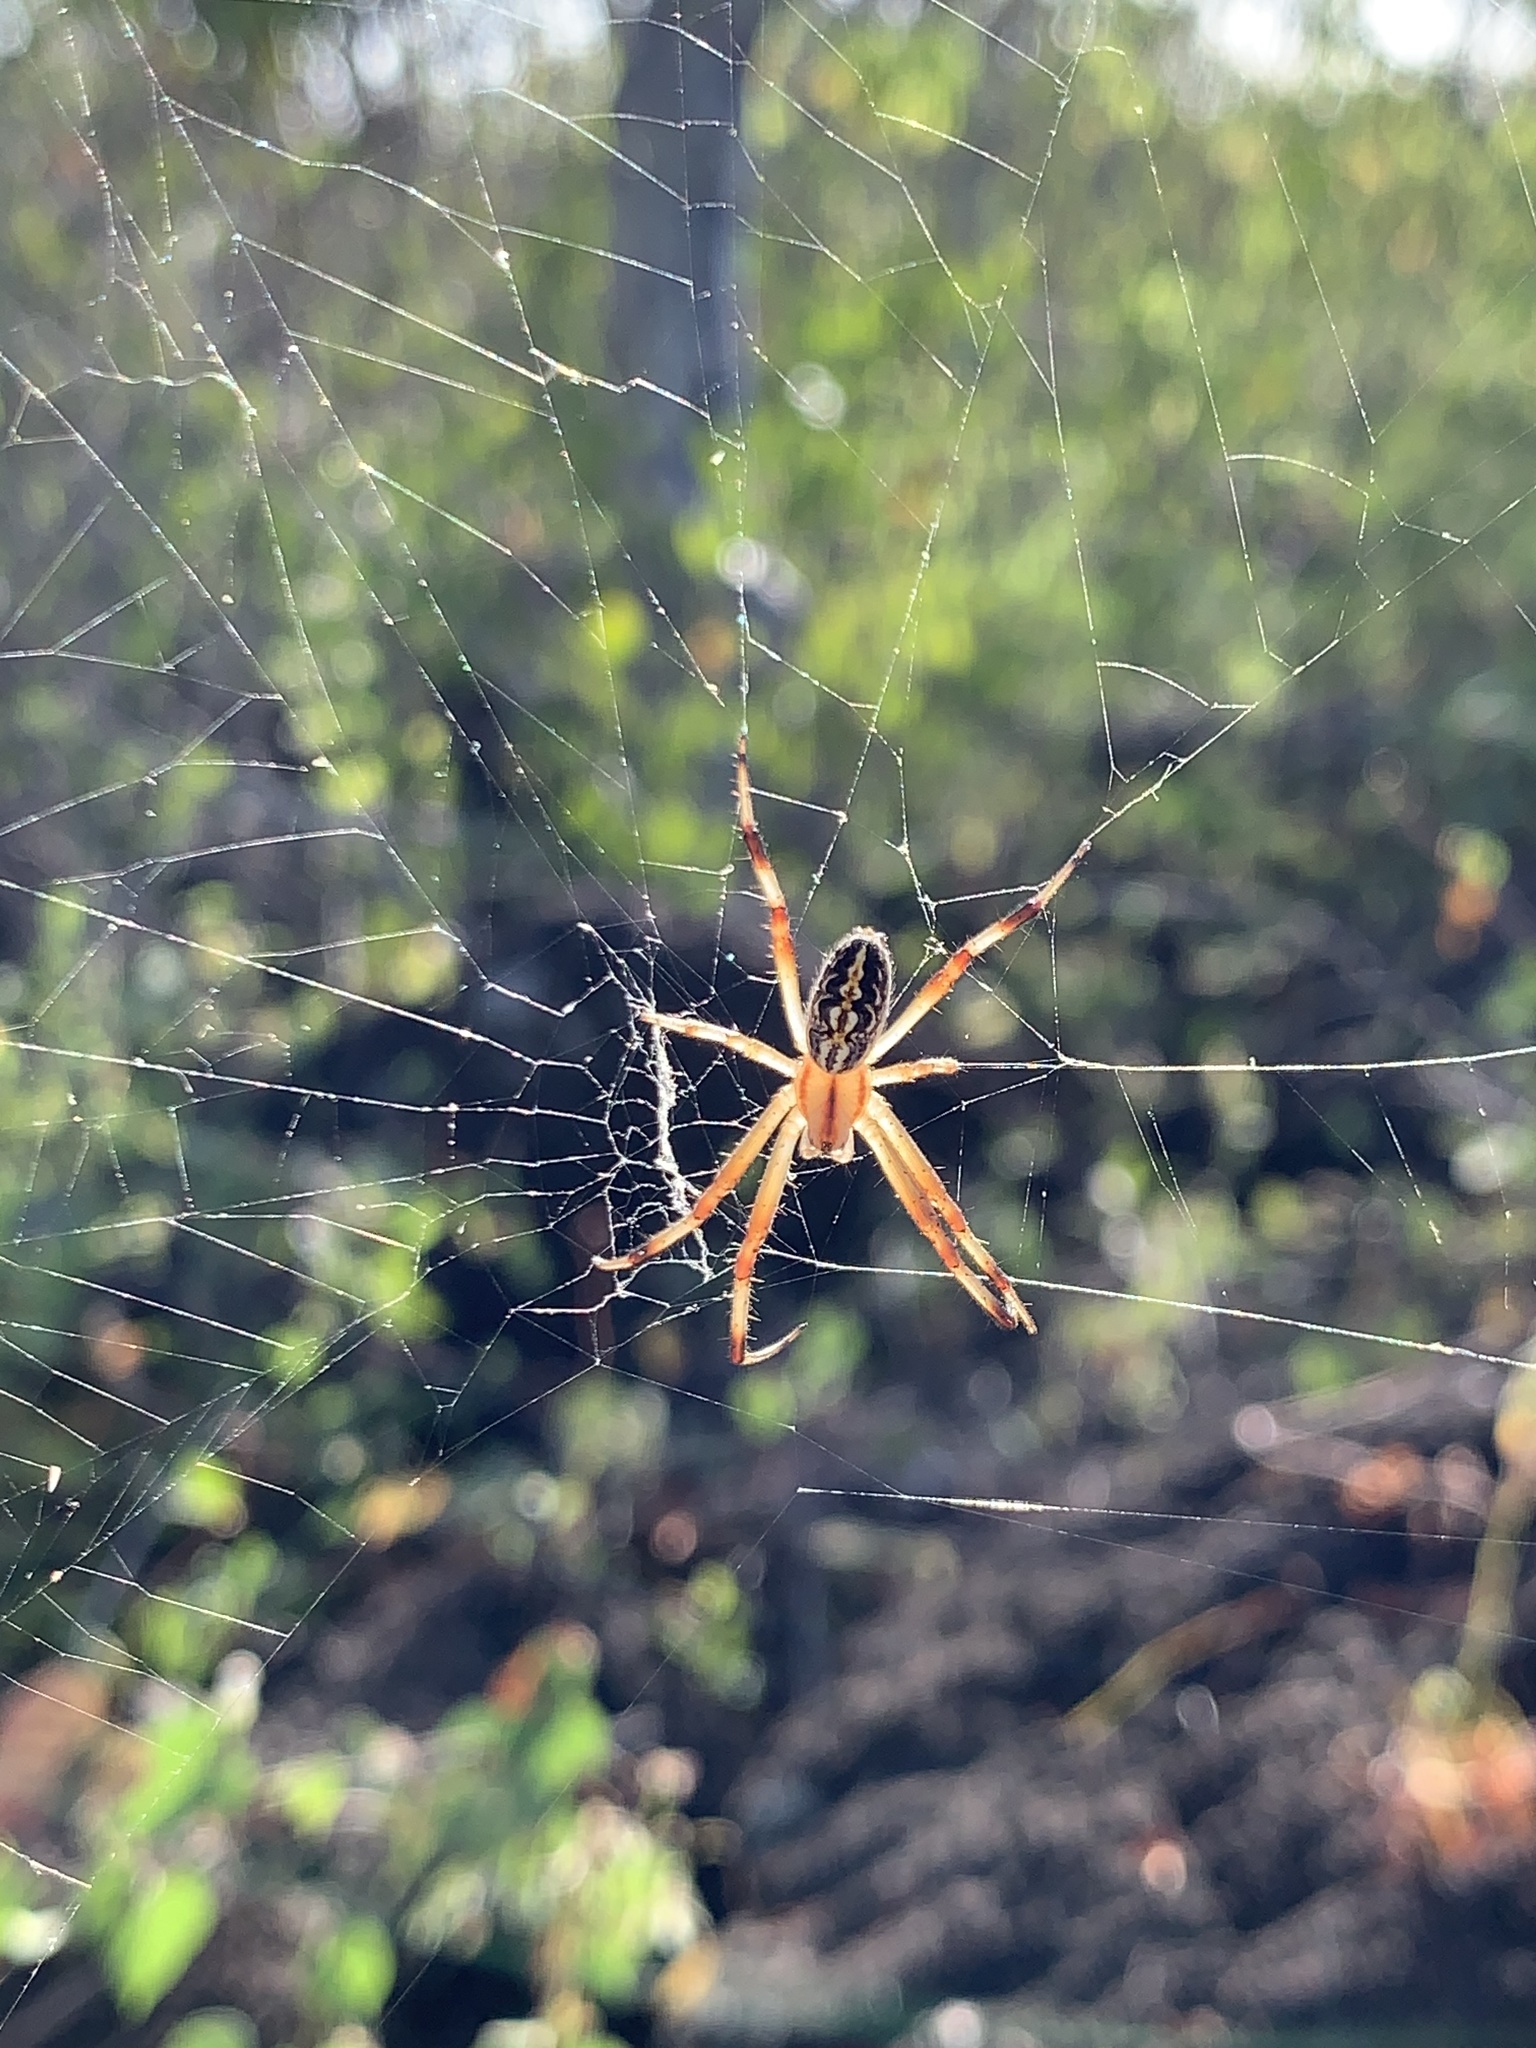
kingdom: Animalia
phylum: Arthropoda
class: Arachnida
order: Araneae
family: Araneidae
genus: Neoscona
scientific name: Neoscona oaxacensis
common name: Orb weavers
